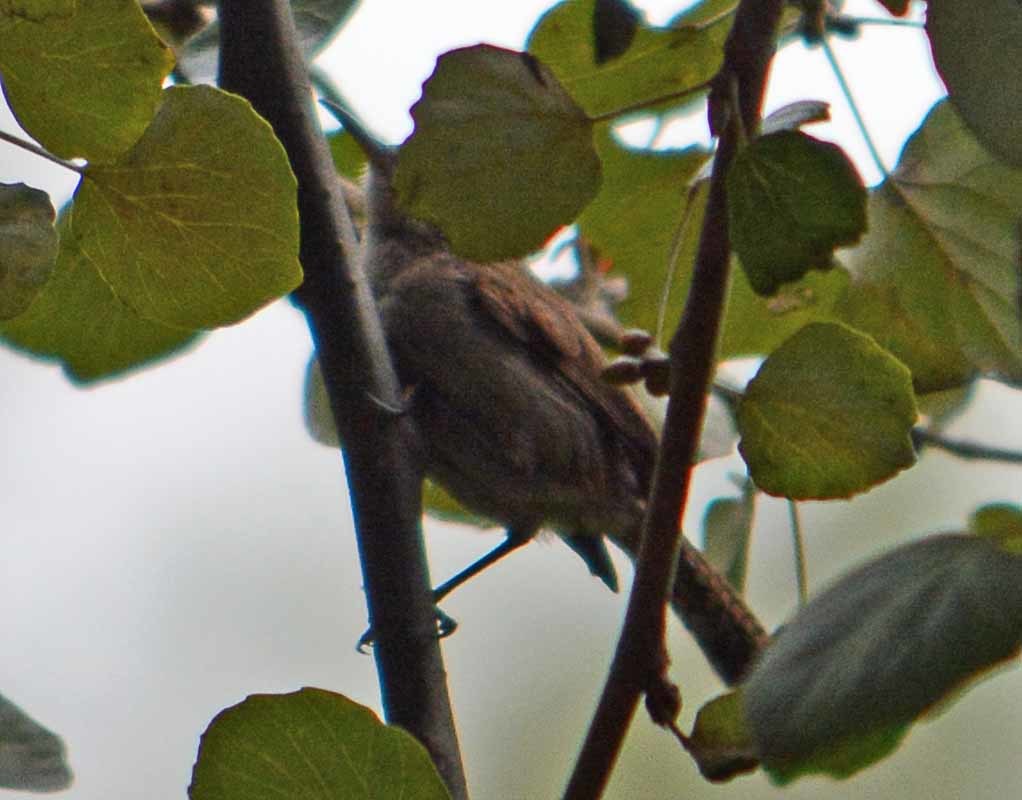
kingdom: Animalia
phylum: Chordata
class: Aves
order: Passeriformes
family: Troglodytidae
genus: Thryomanes
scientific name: Thryomanes bewickii
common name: Bewick's wren
